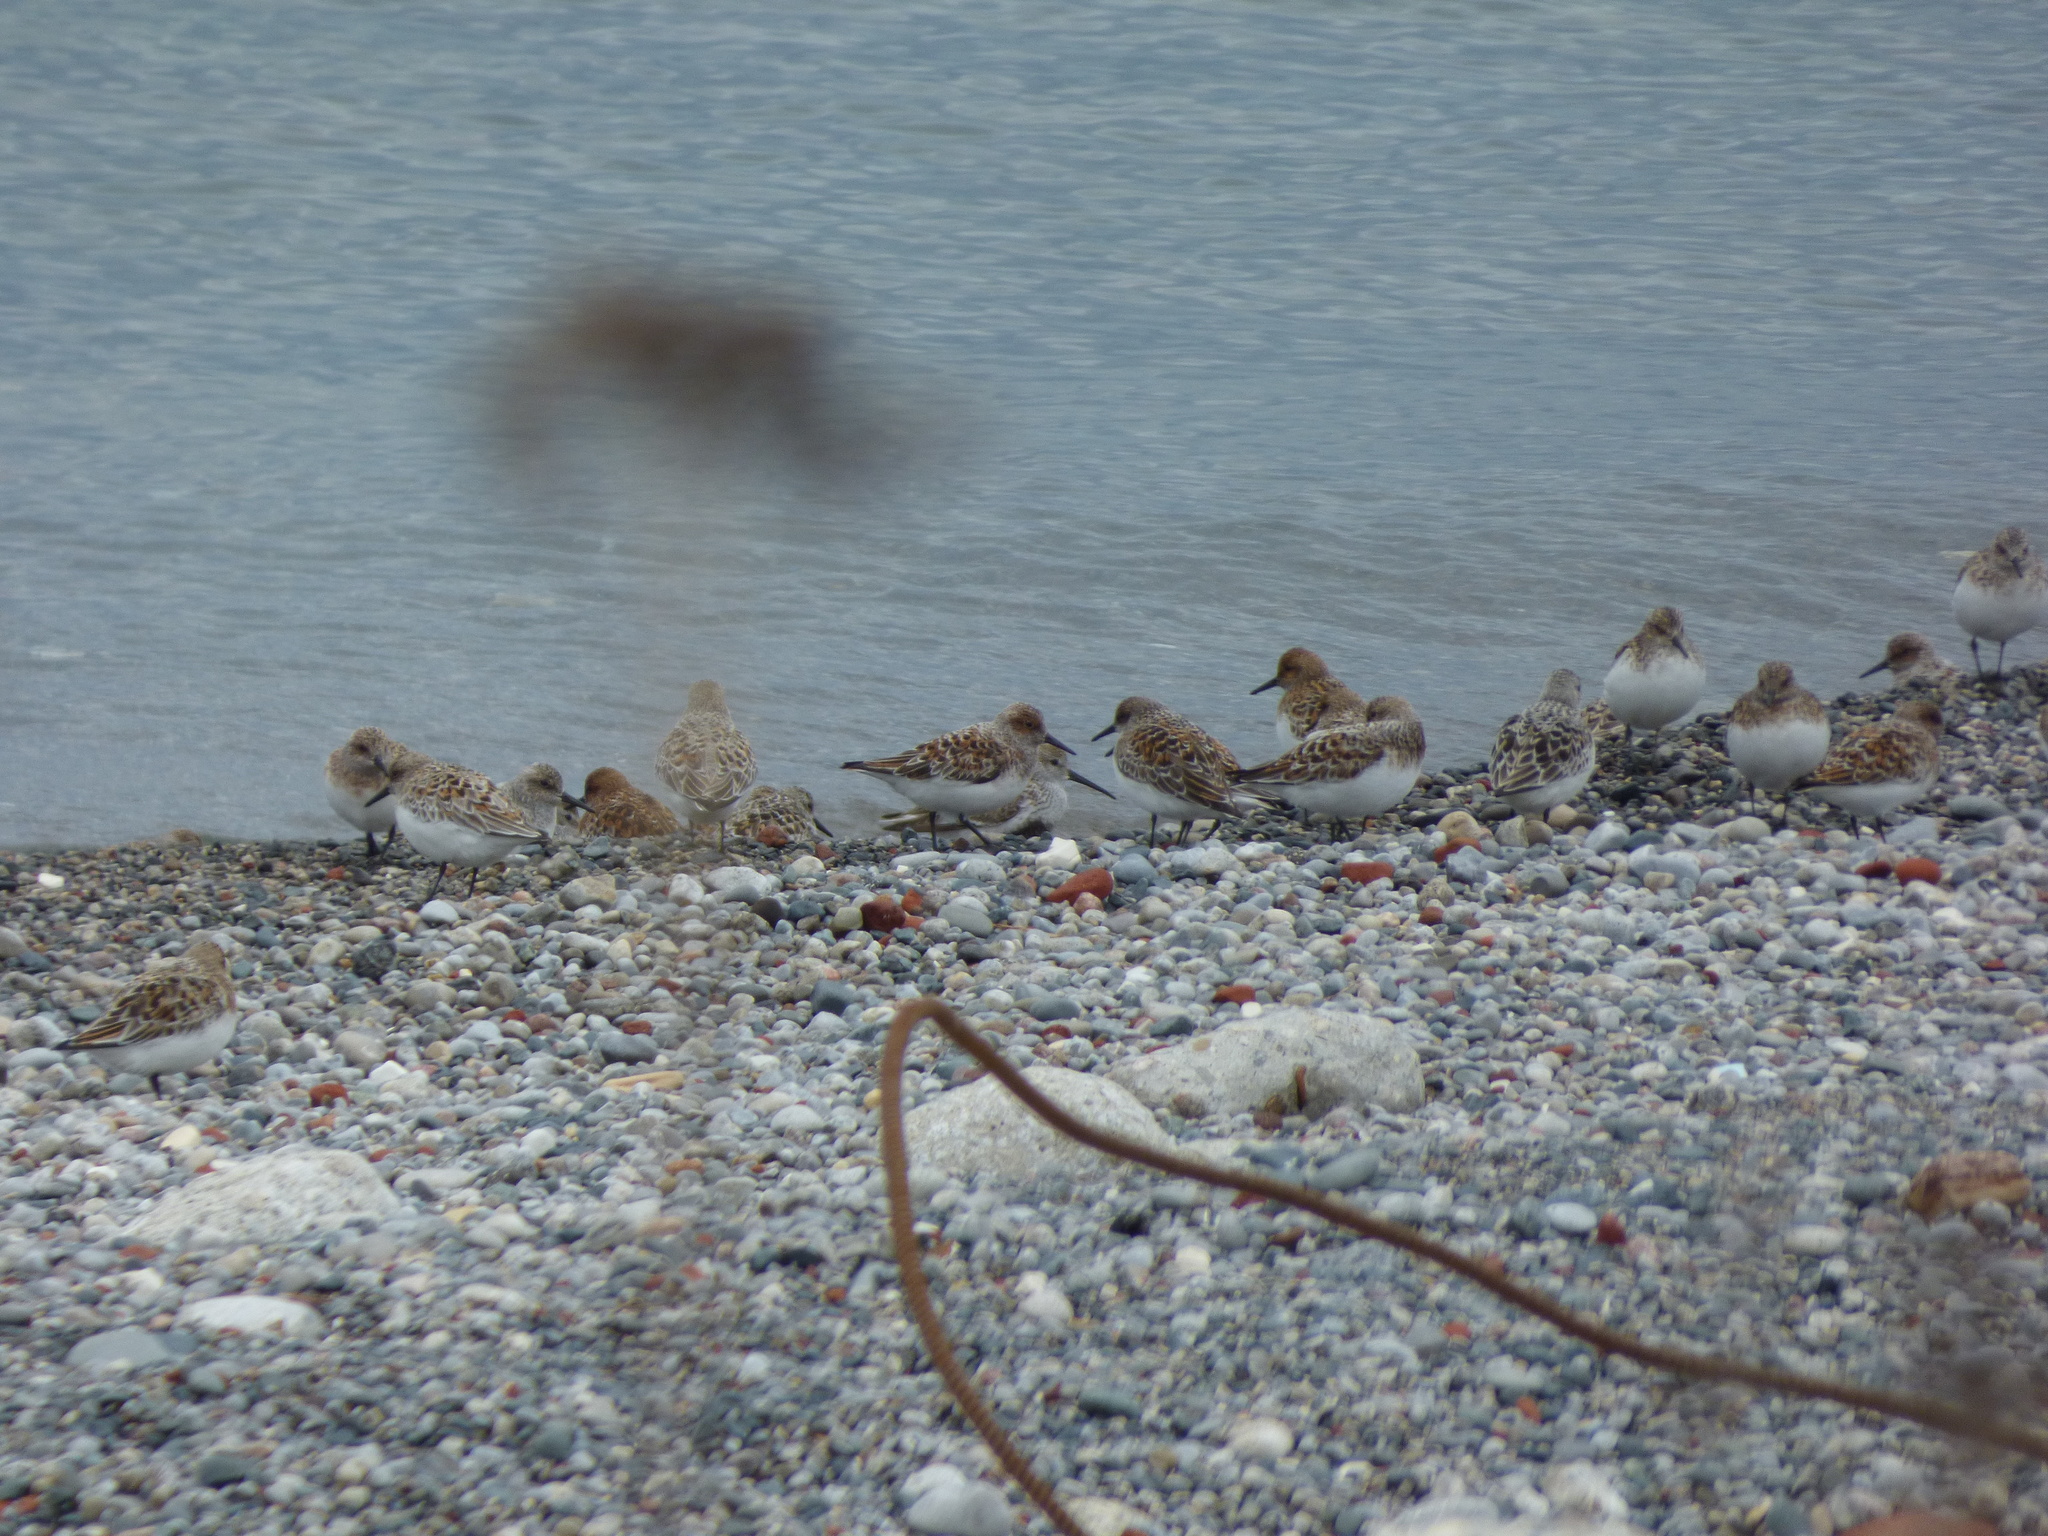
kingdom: Animalia
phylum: Chordata
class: Aves
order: Charadriiformes
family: Scolopacidae
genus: Calidris
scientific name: Calidris alba
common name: Sanderling
